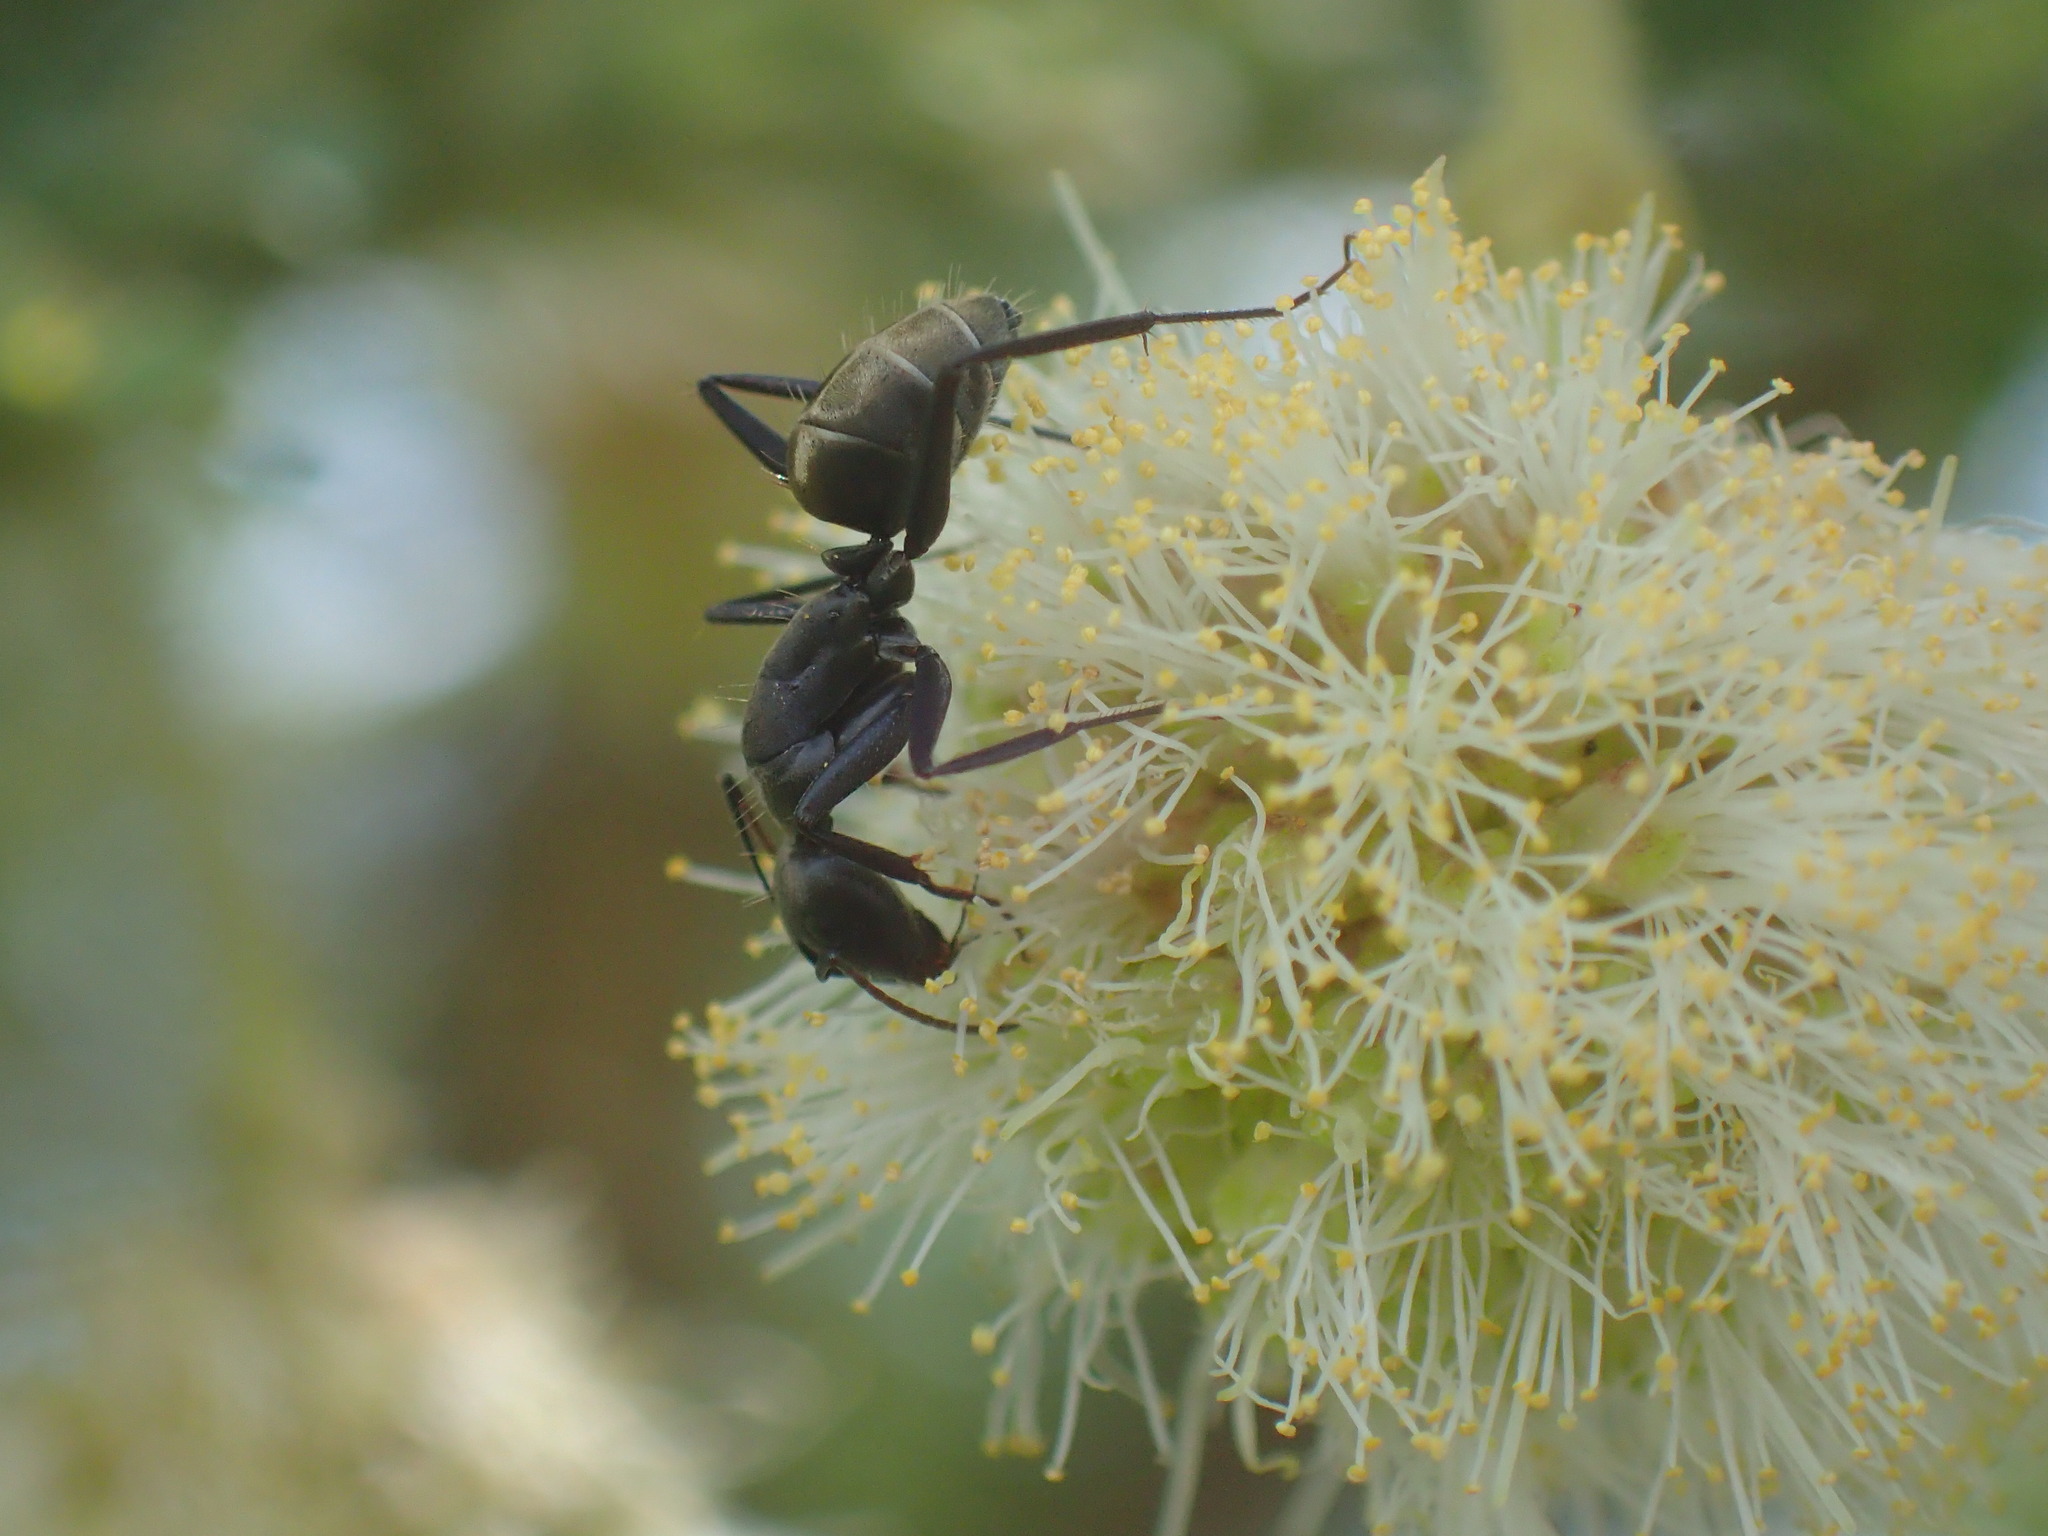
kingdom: Plantae
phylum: Tracheophyta
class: Magnoliopsida
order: Fabales
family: Fabaceae
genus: Vachellia
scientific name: Vachellia sieberiana
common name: Flat-topped thorn
